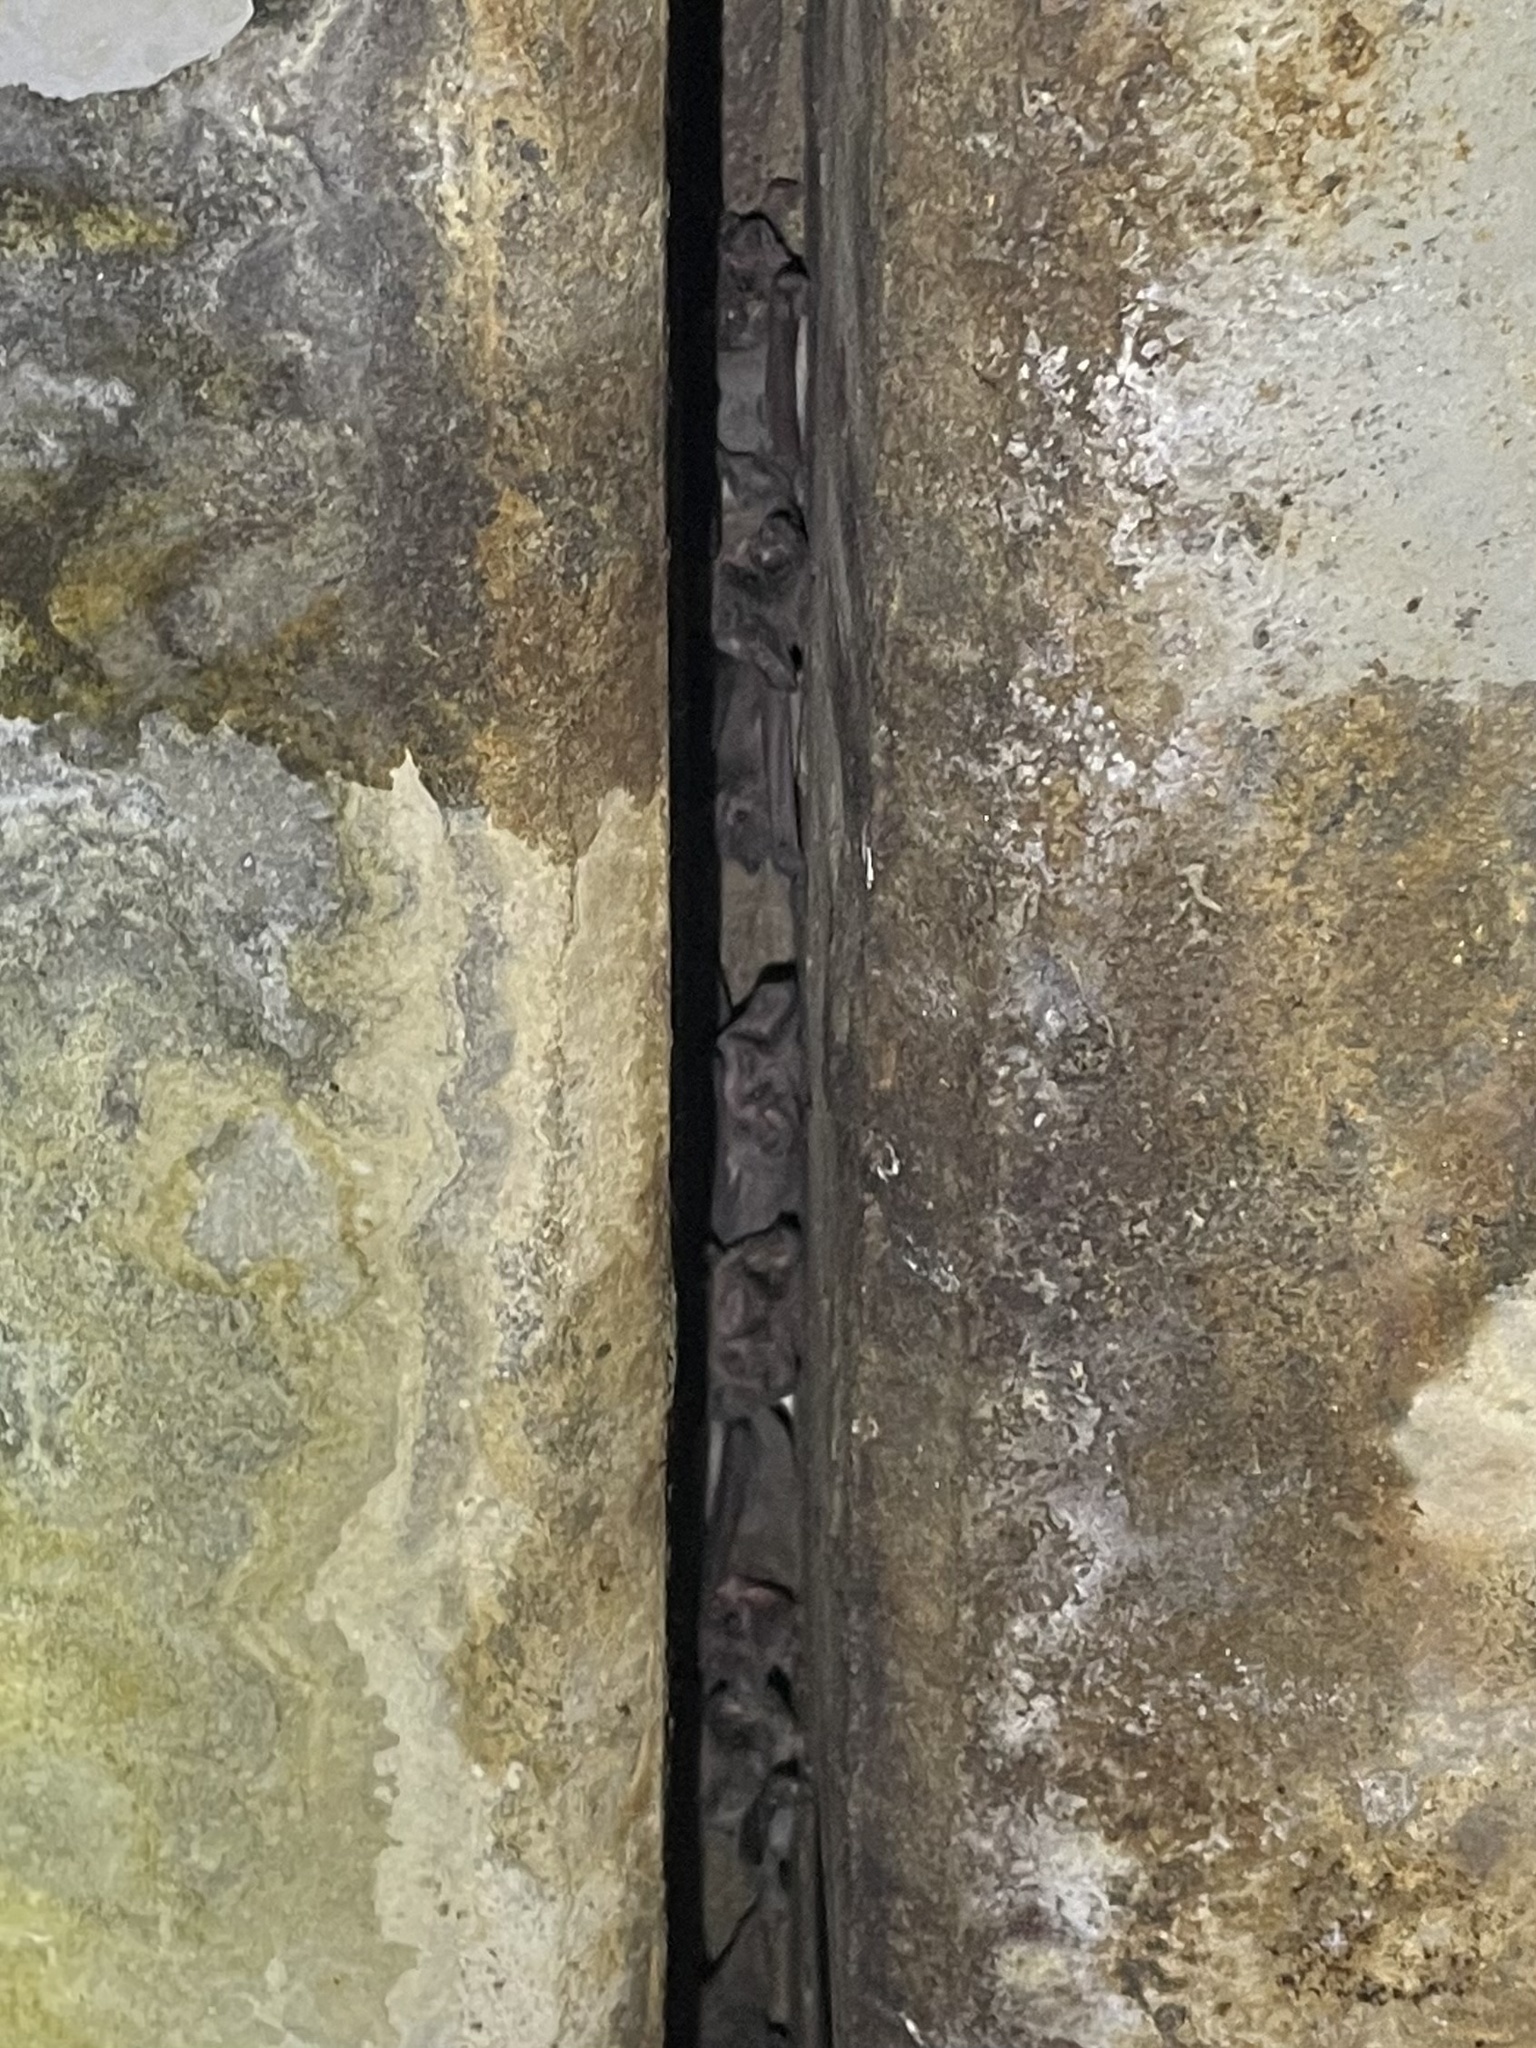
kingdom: Animalia
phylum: Chordata
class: Mammalia
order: Chiroptera
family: Molossidae
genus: Tadarida
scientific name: Tadarida brasiliensis
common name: Mexican free-tailed bat
